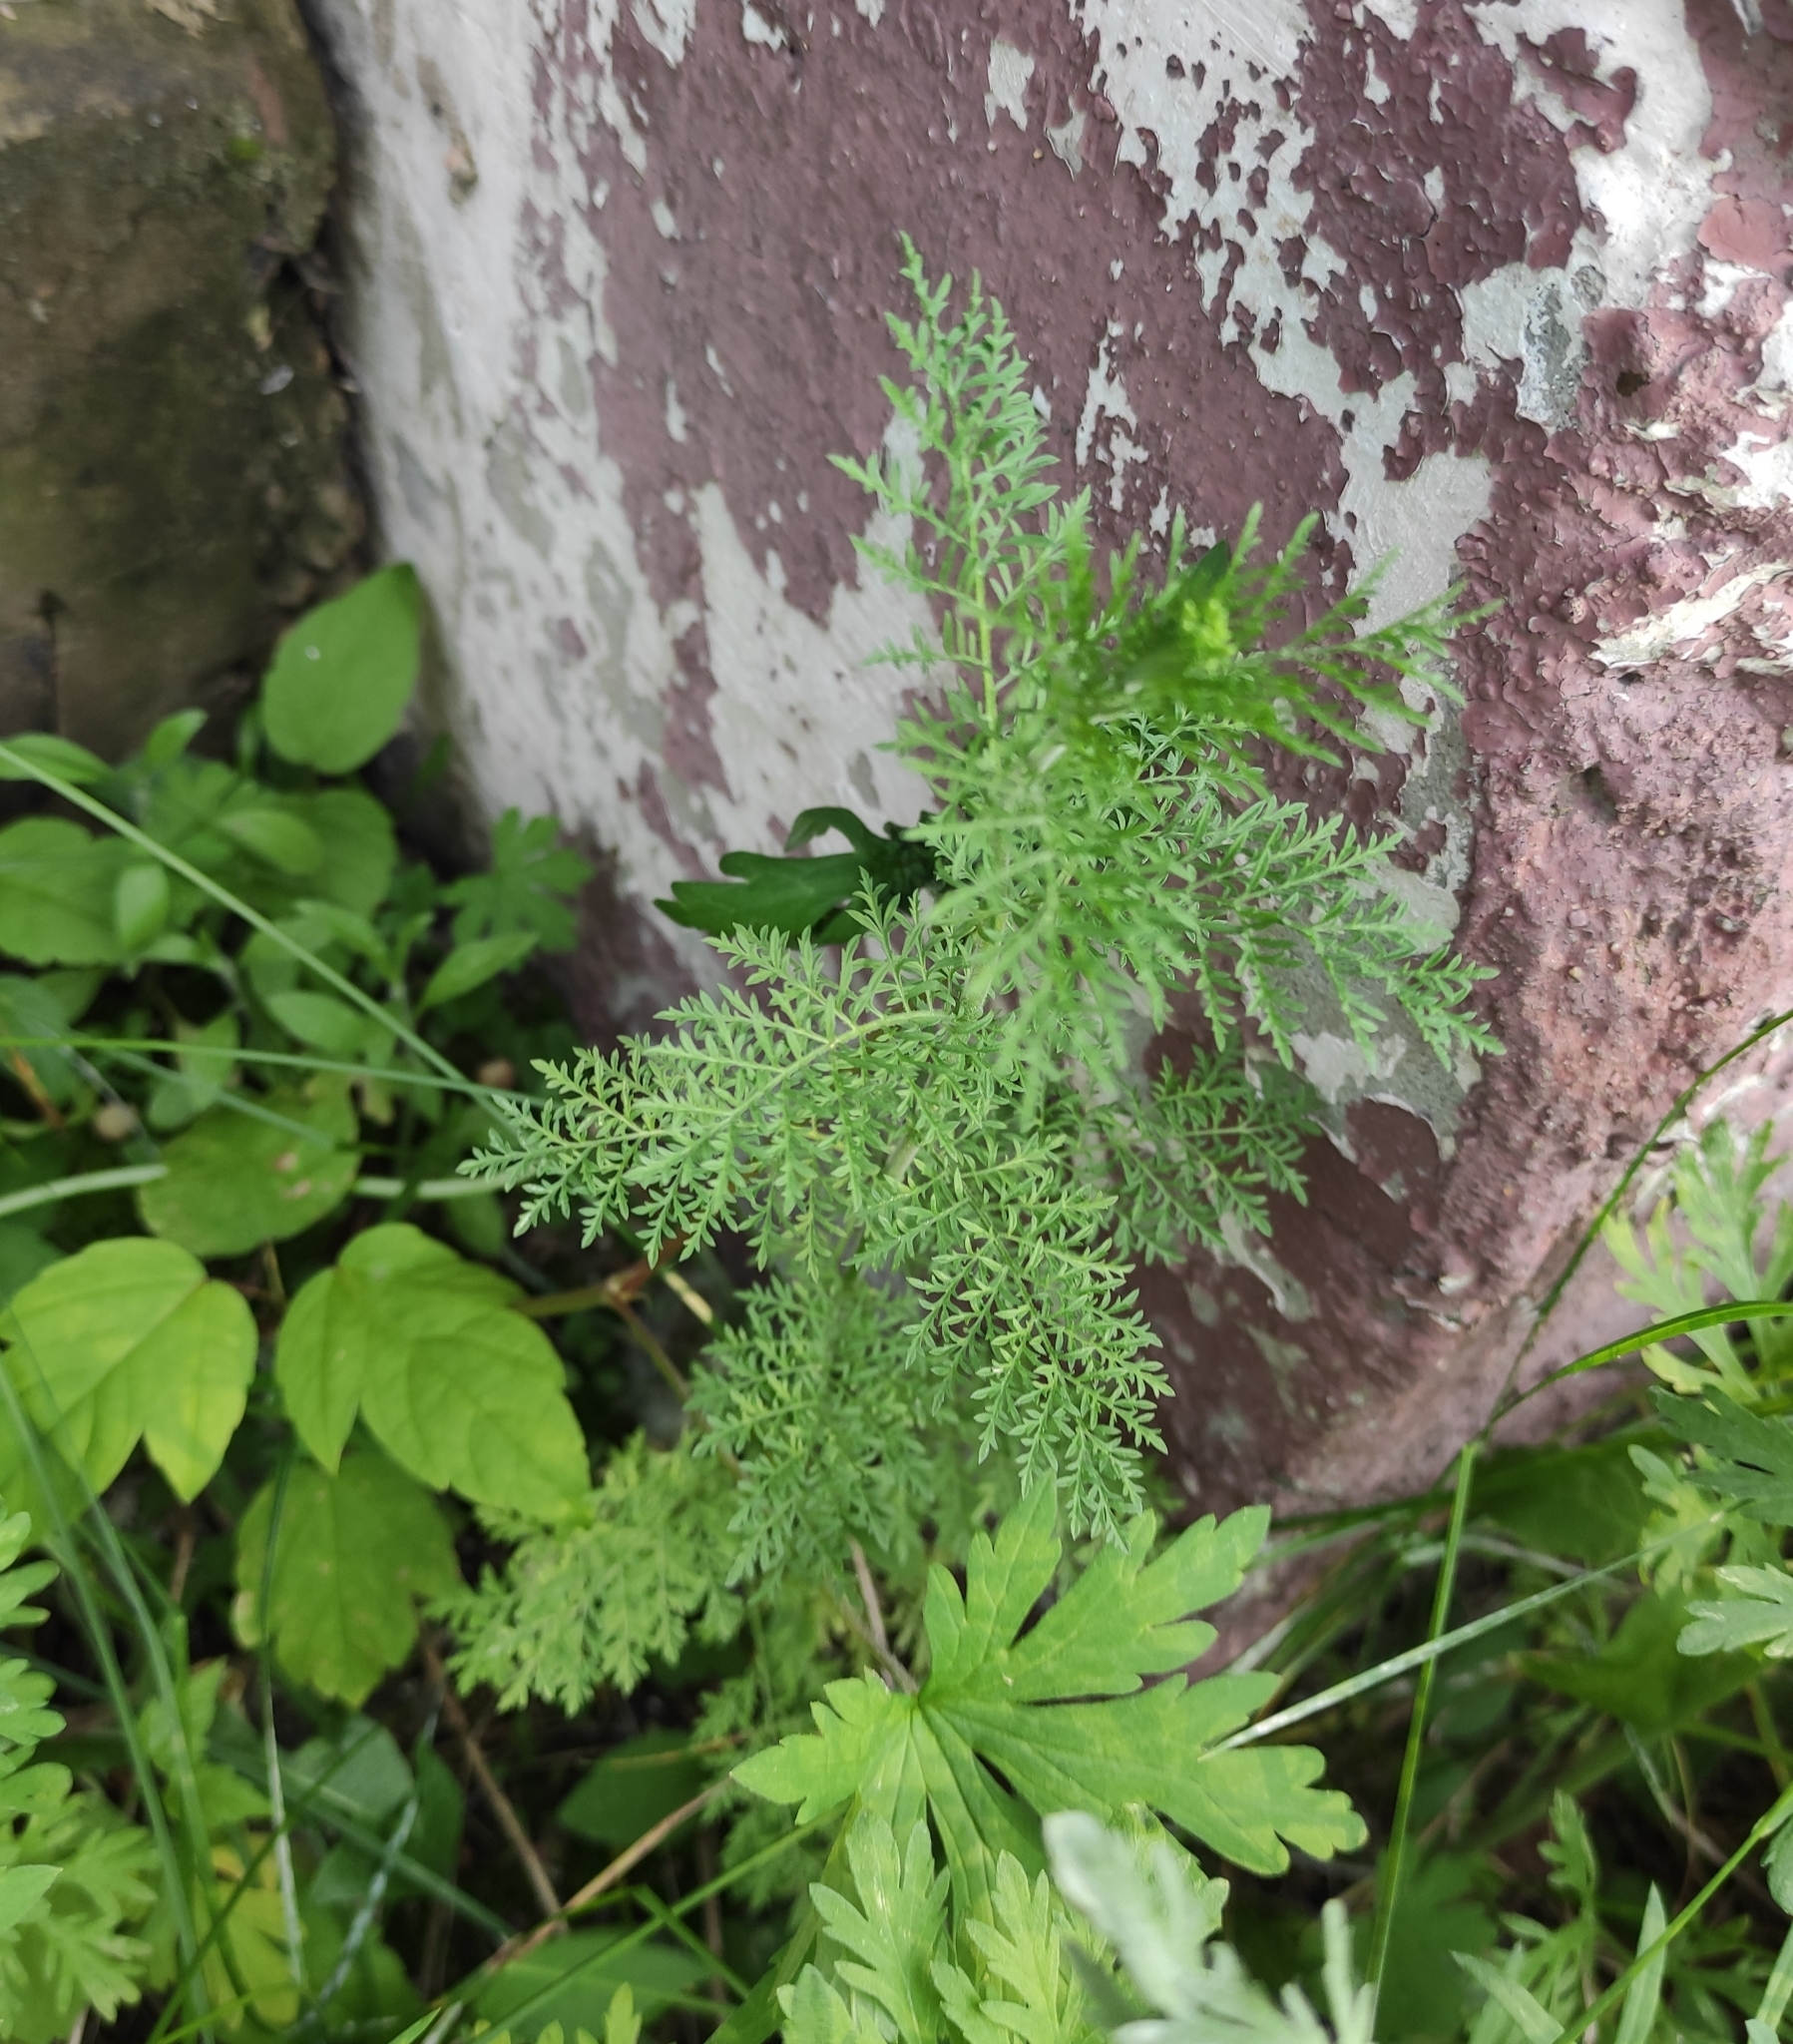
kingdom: Plantae
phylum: Tracheophyta
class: Magnoliopsida
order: Brassicales
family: Brassicaceae
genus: Descurainia
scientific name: Descurainia sophia
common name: Flixweed
